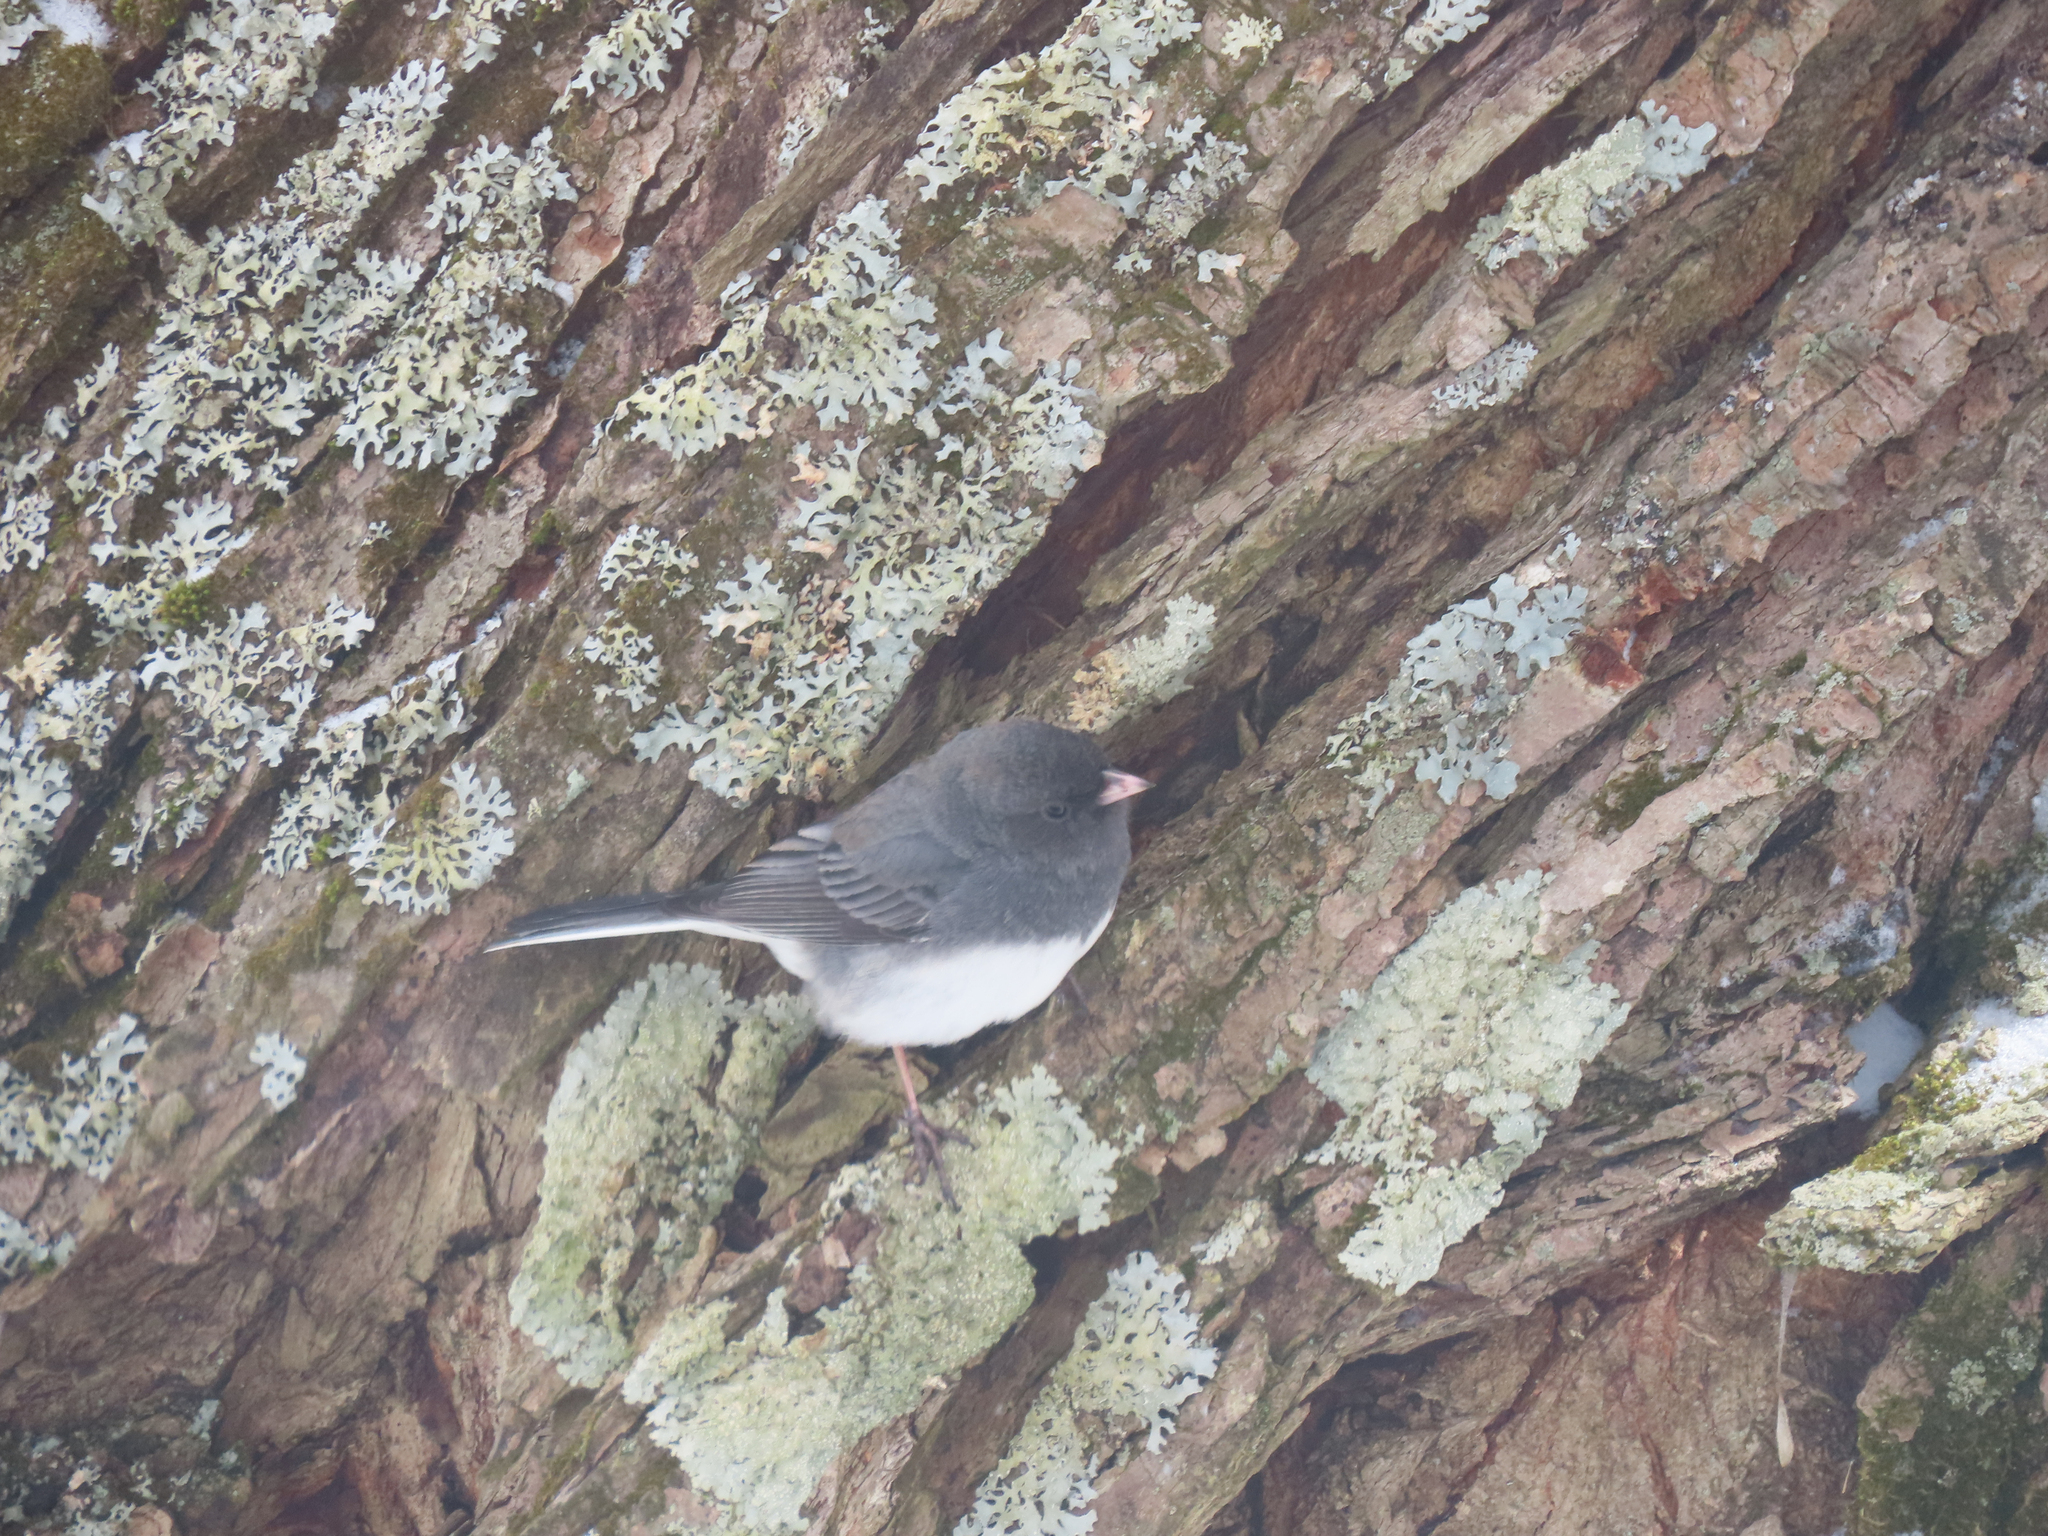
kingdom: Animalia
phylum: Chordata
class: Aves
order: Passeriformes
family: Passerellidae
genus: Junco
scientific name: Junco hyemalis
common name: Dark-eyed junco
